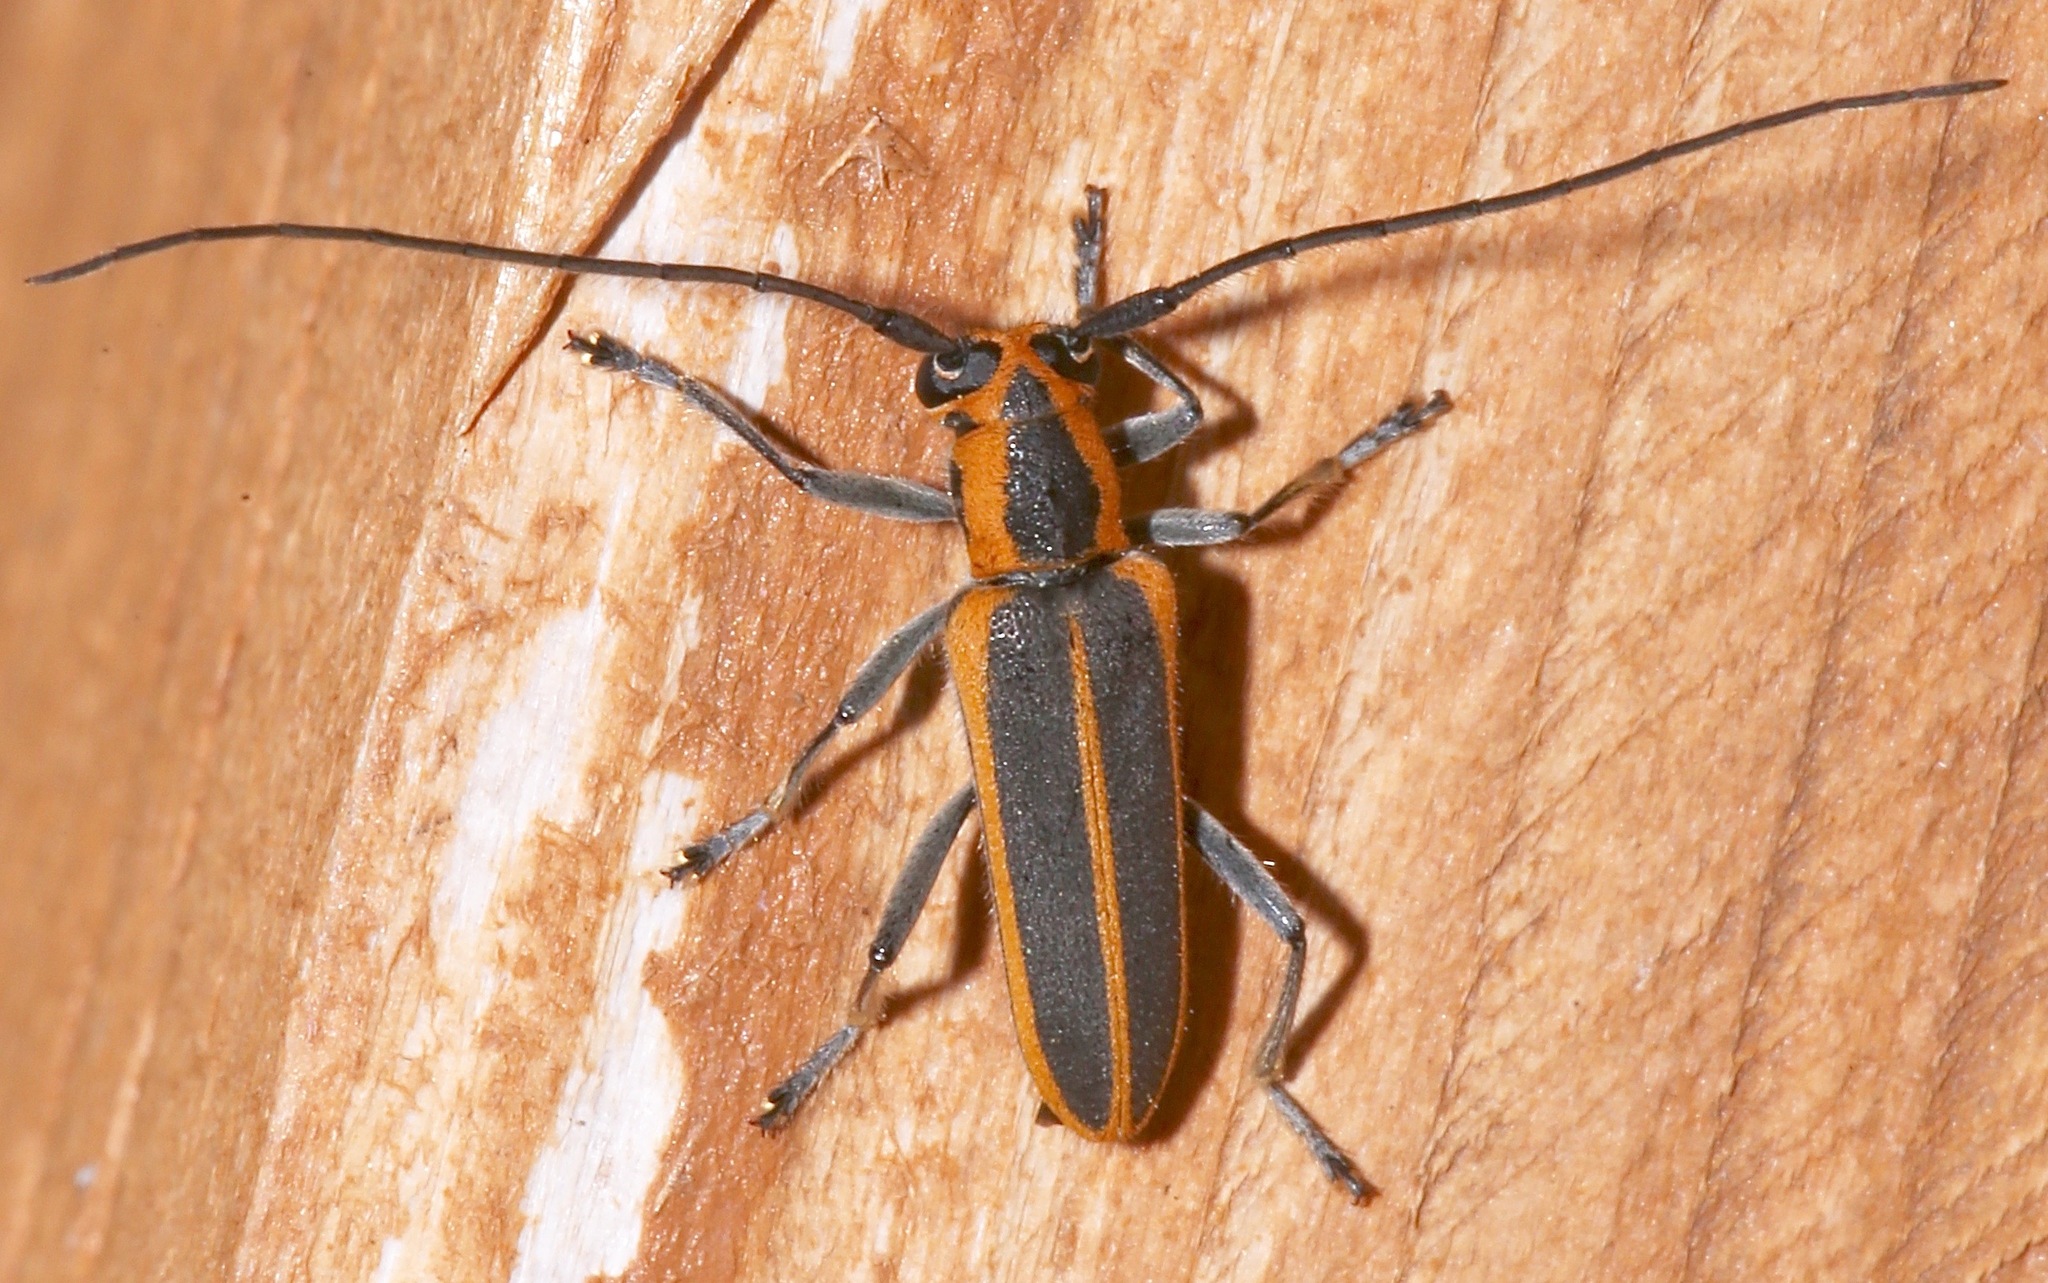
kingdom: Animalia
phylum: Arthropoda
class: Insecta
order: Coleoptera
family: Cerambycidae
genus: Saperda
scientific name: Saperda lateralis
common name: Red-edged saperda
